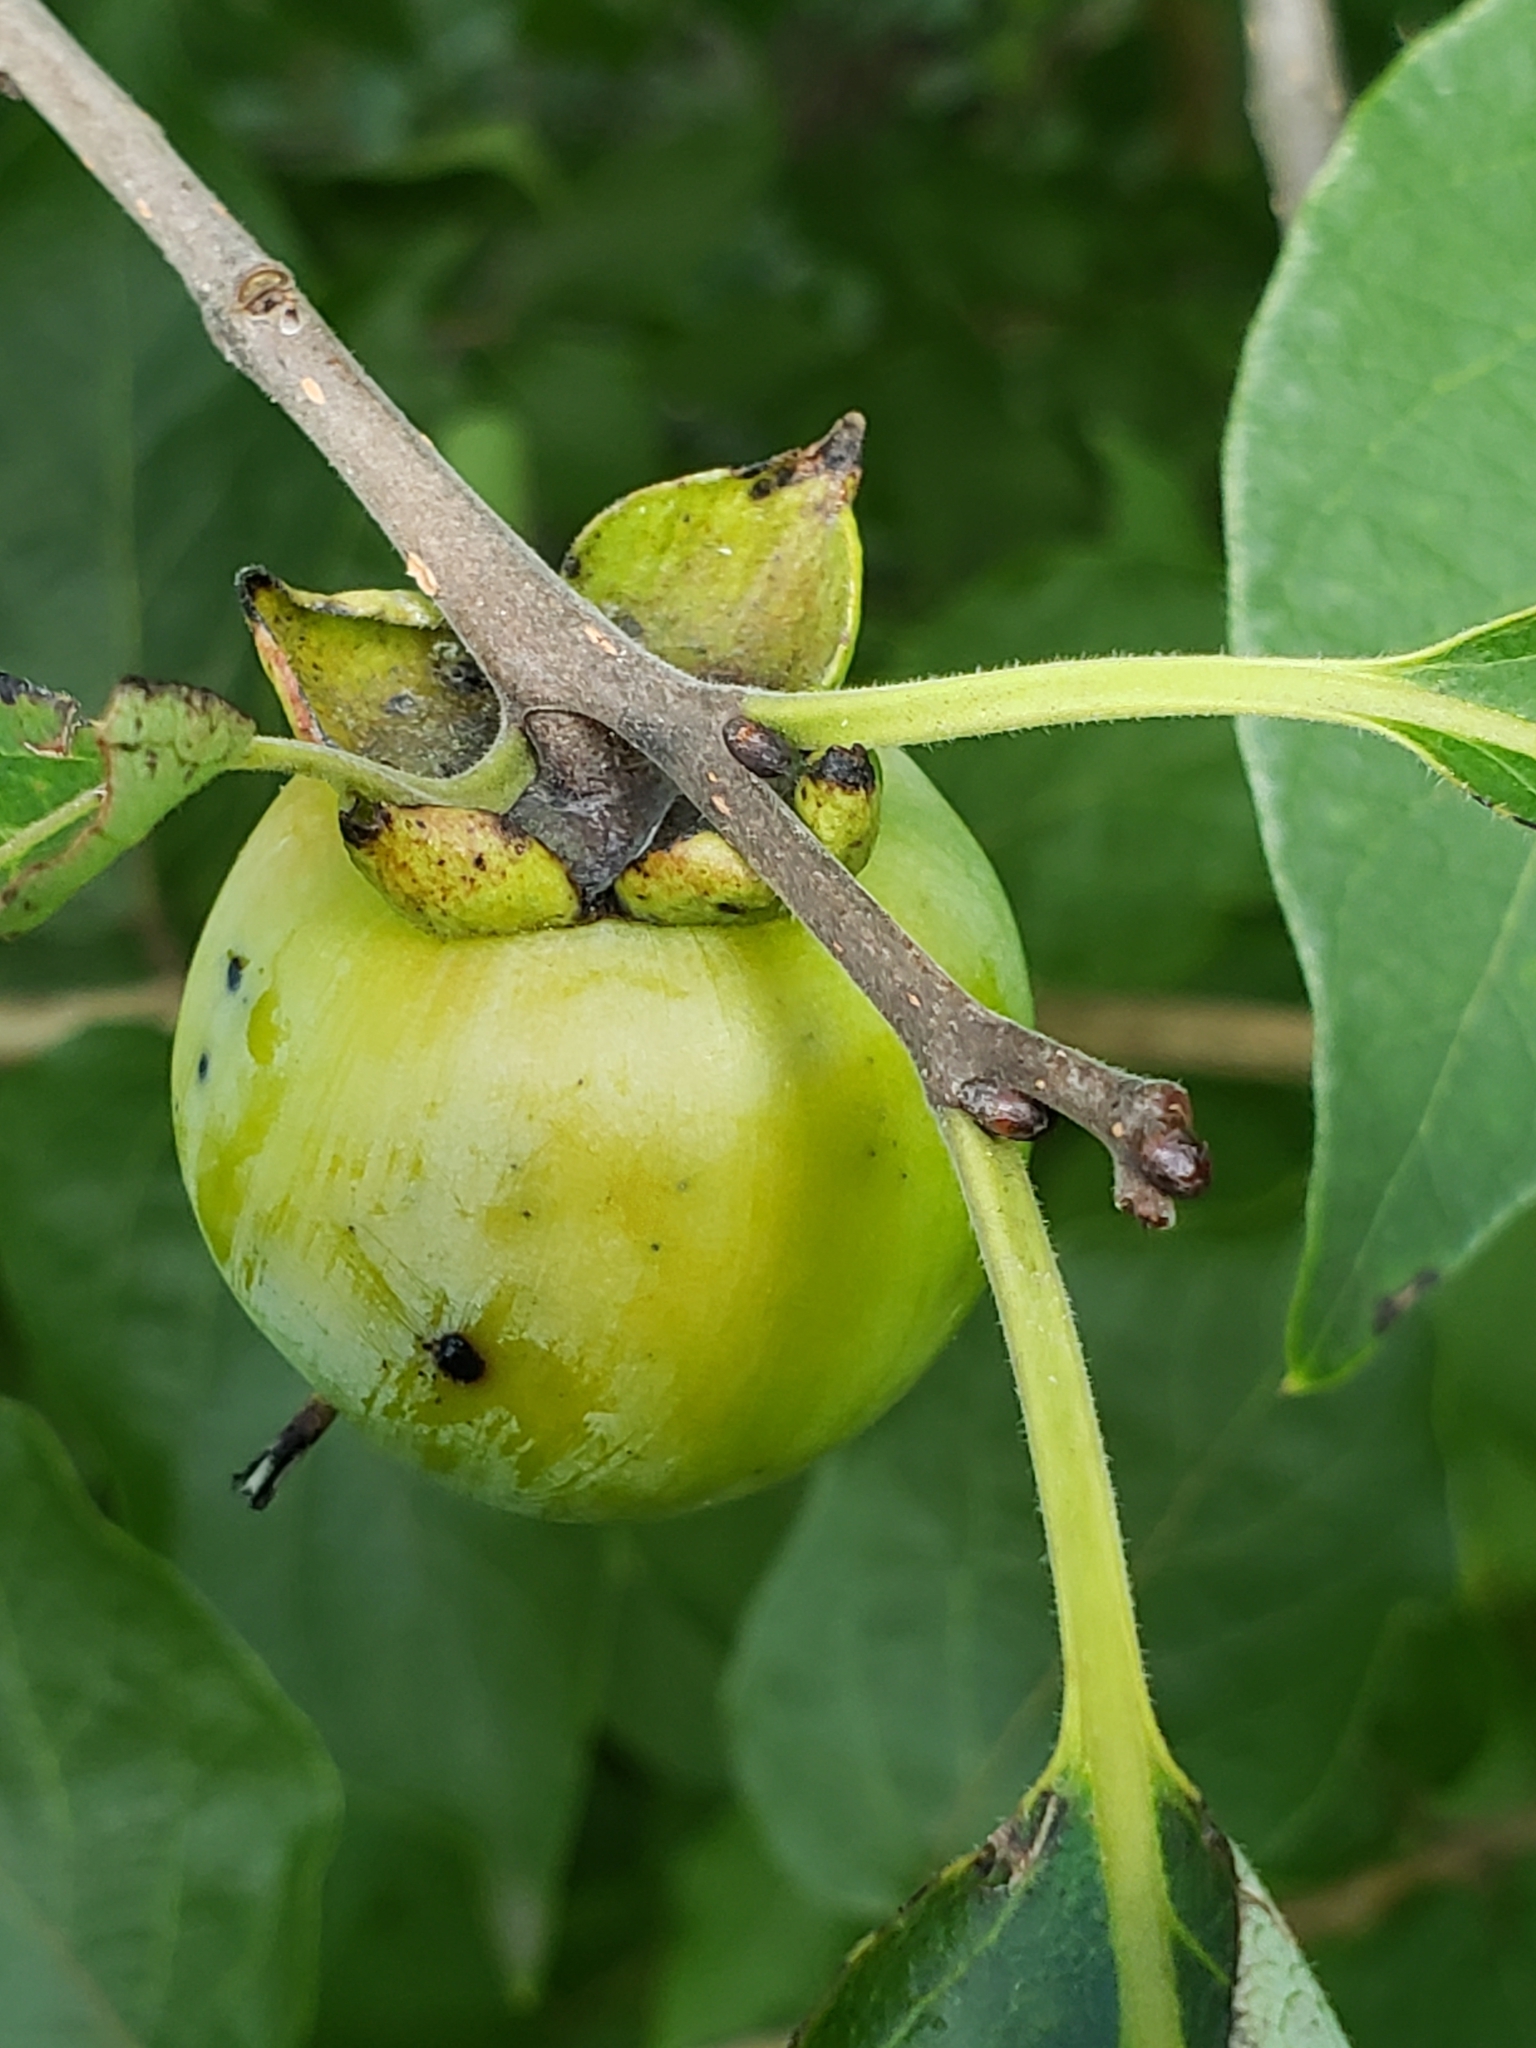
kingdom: Plantae
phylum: Tracheophyta
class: Magnoliopsida
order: Ericales
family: Ebenaceae
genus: Diospyros
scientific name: Diospyros virginiana
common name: Persimmon
